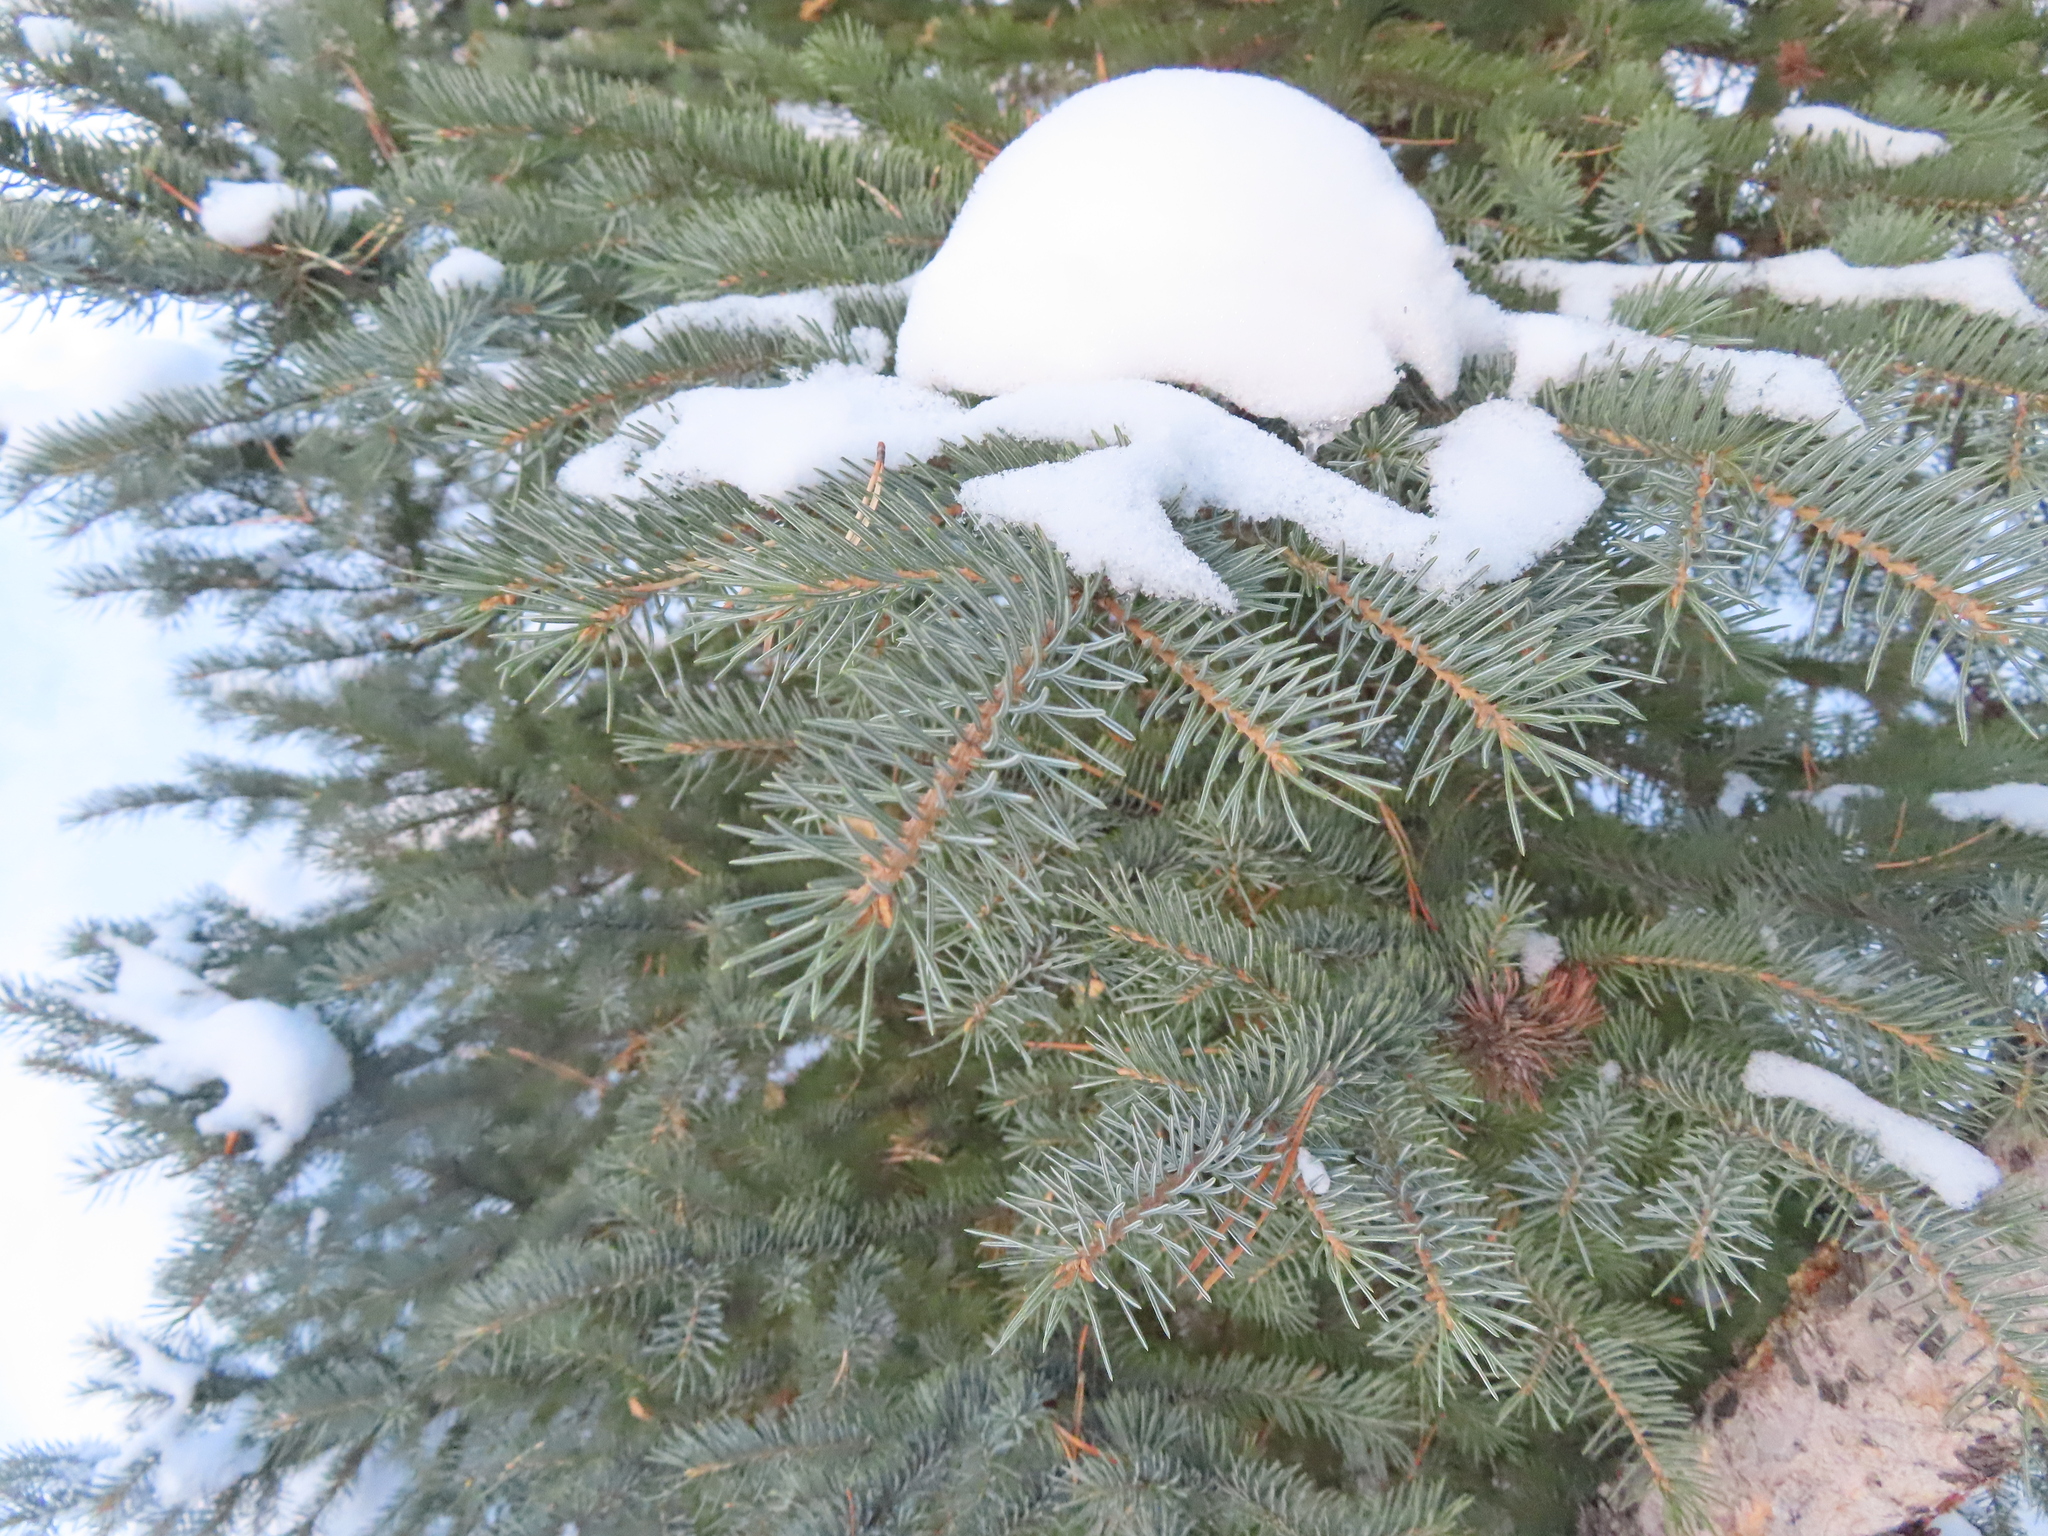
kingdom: Plantae
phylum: Tracheophyta
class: Pinopsida
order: Pinales
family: Pinaceae
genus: Picea
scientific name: Picea pungens
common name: Colorado spruce
